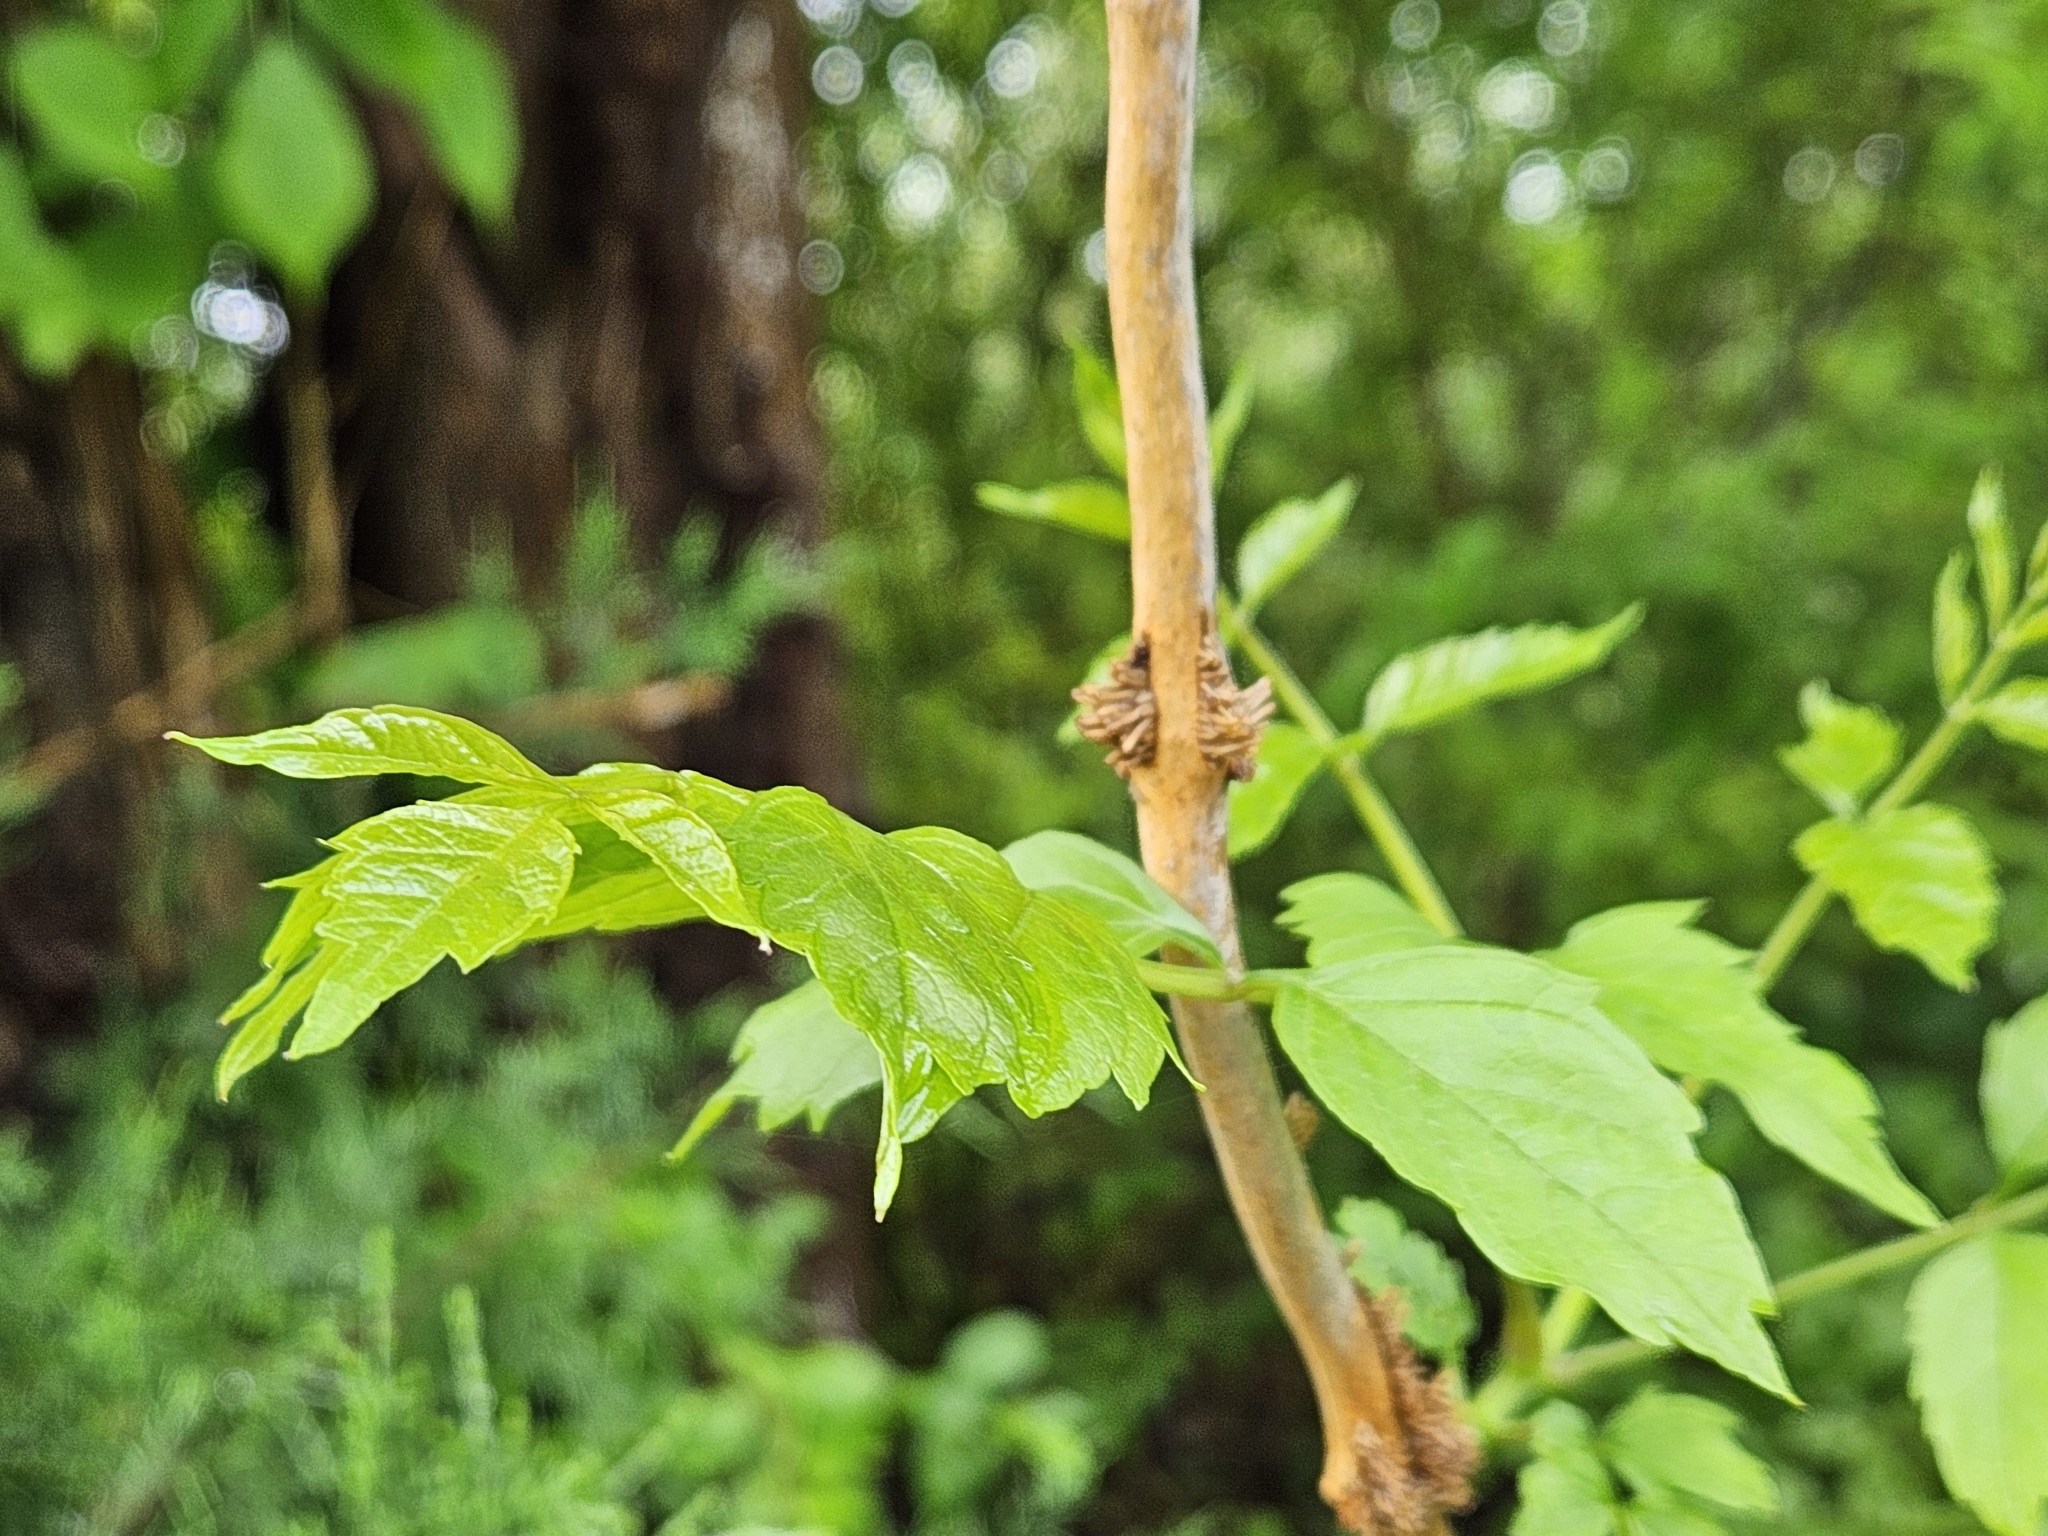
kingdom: Plantae
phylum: Tracheophyta
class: Magnoliopsida
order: Lamiales
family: Bignoniaceae
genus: Campsis
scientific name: Campsis radicans
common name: Trumpet-creeper
